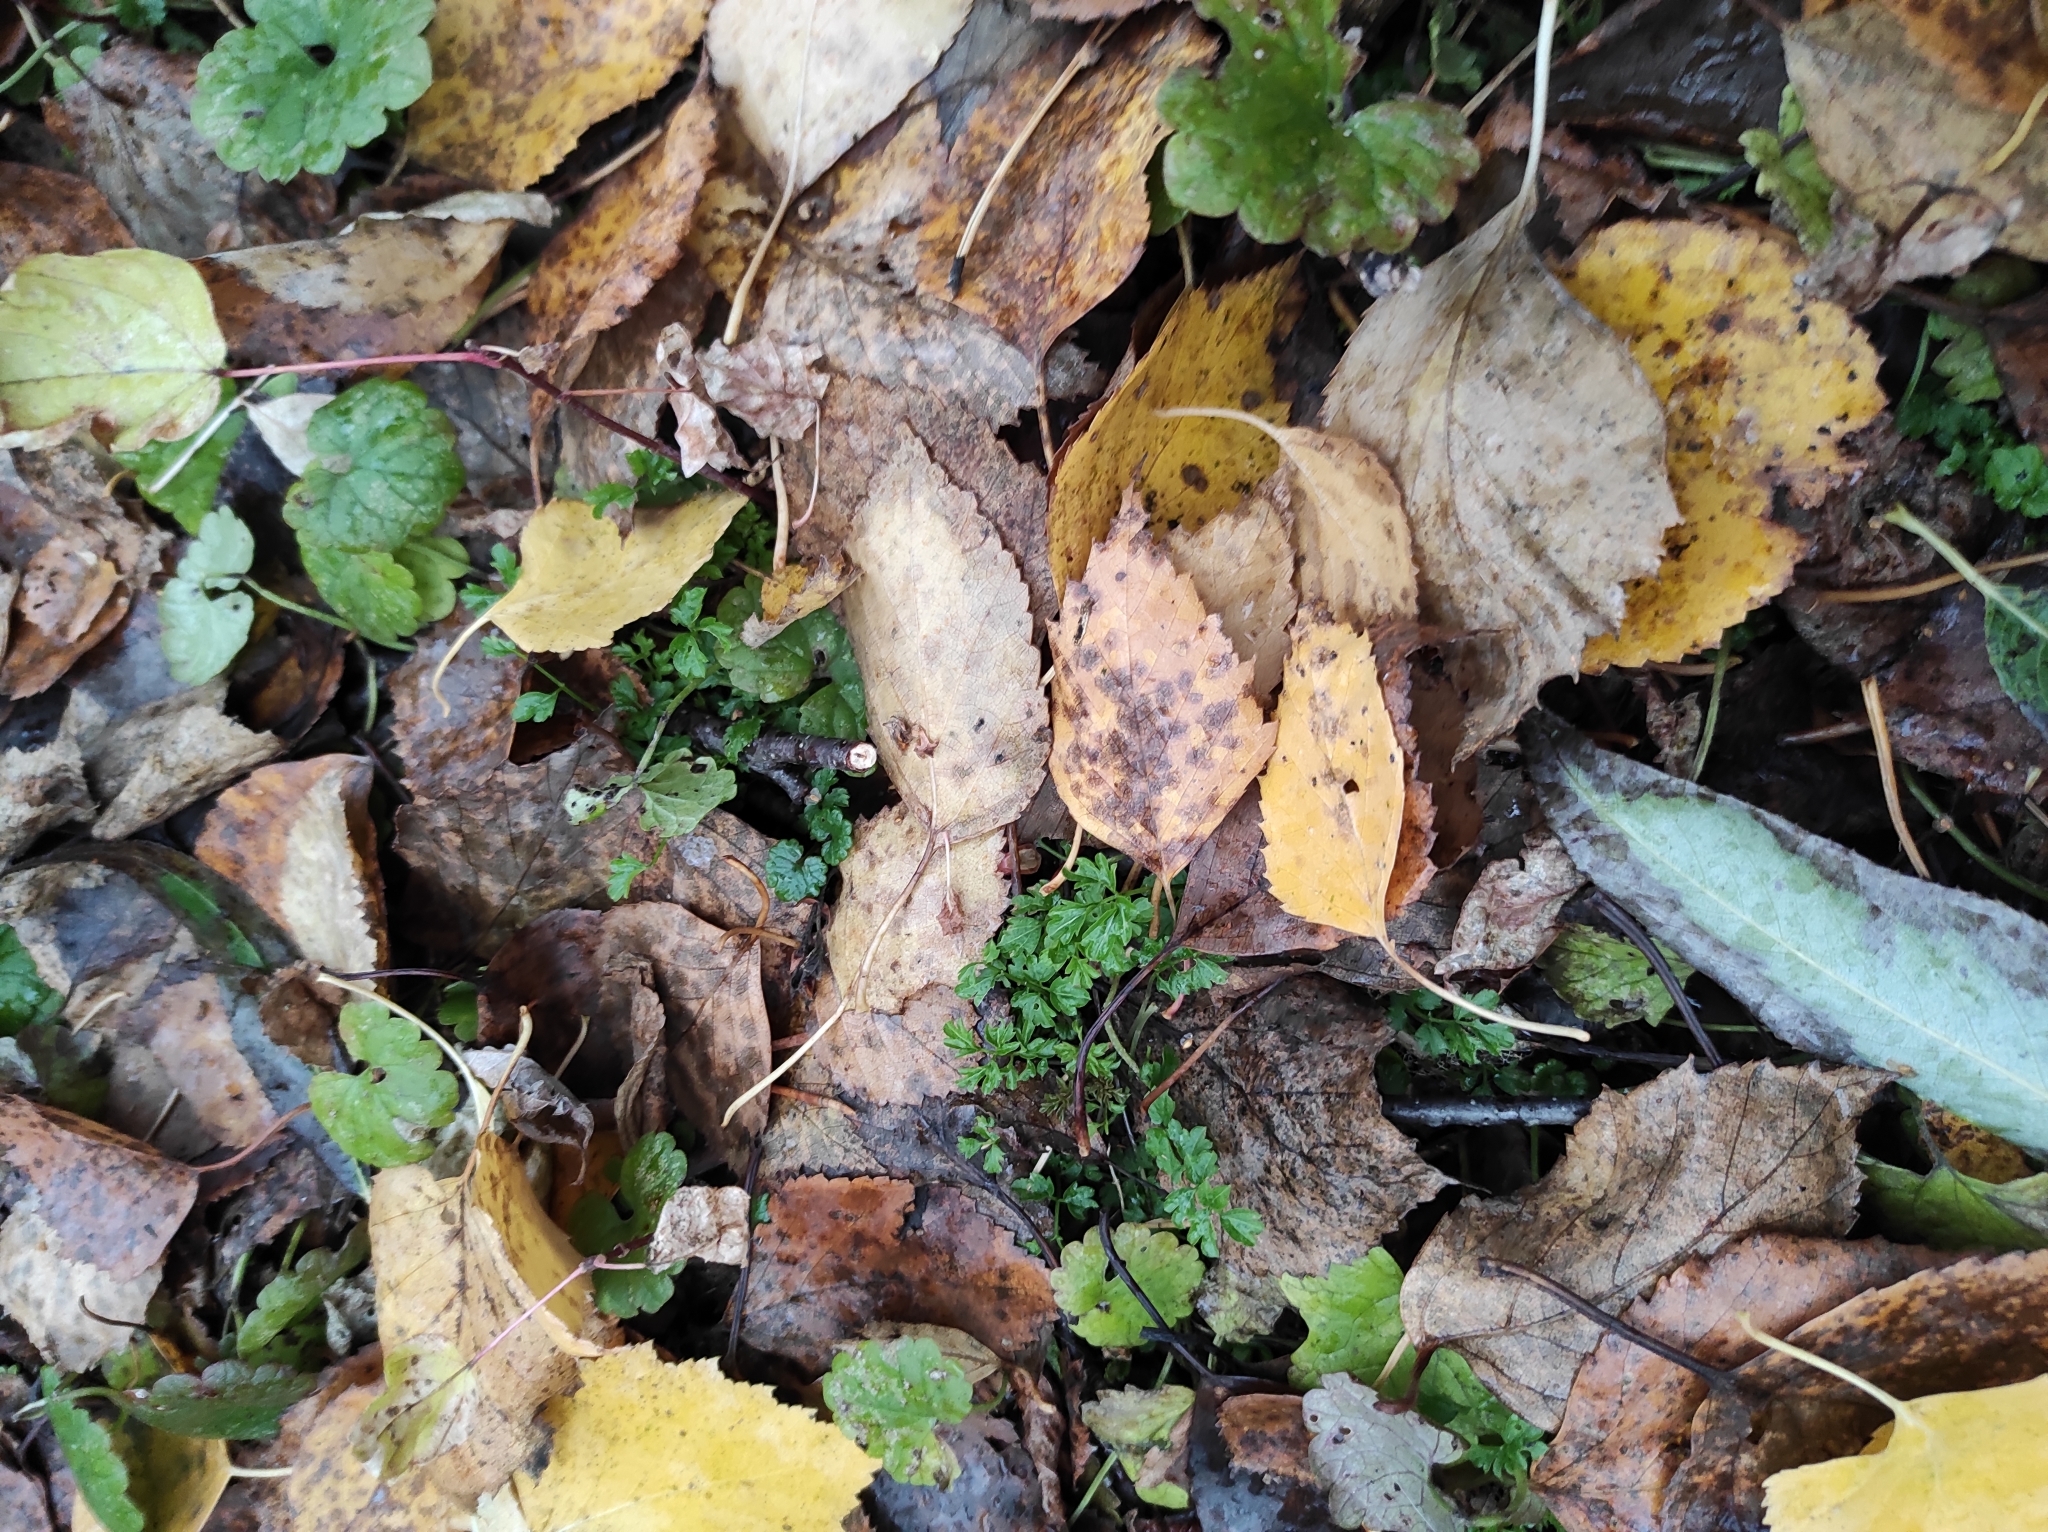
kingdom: Plantae
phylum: Tracheophyta
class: Magnoliopsida
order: Lamiales
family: Lamiaceae
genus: Glechoma
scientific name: Glechoma hederacea
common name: Ground ivy
